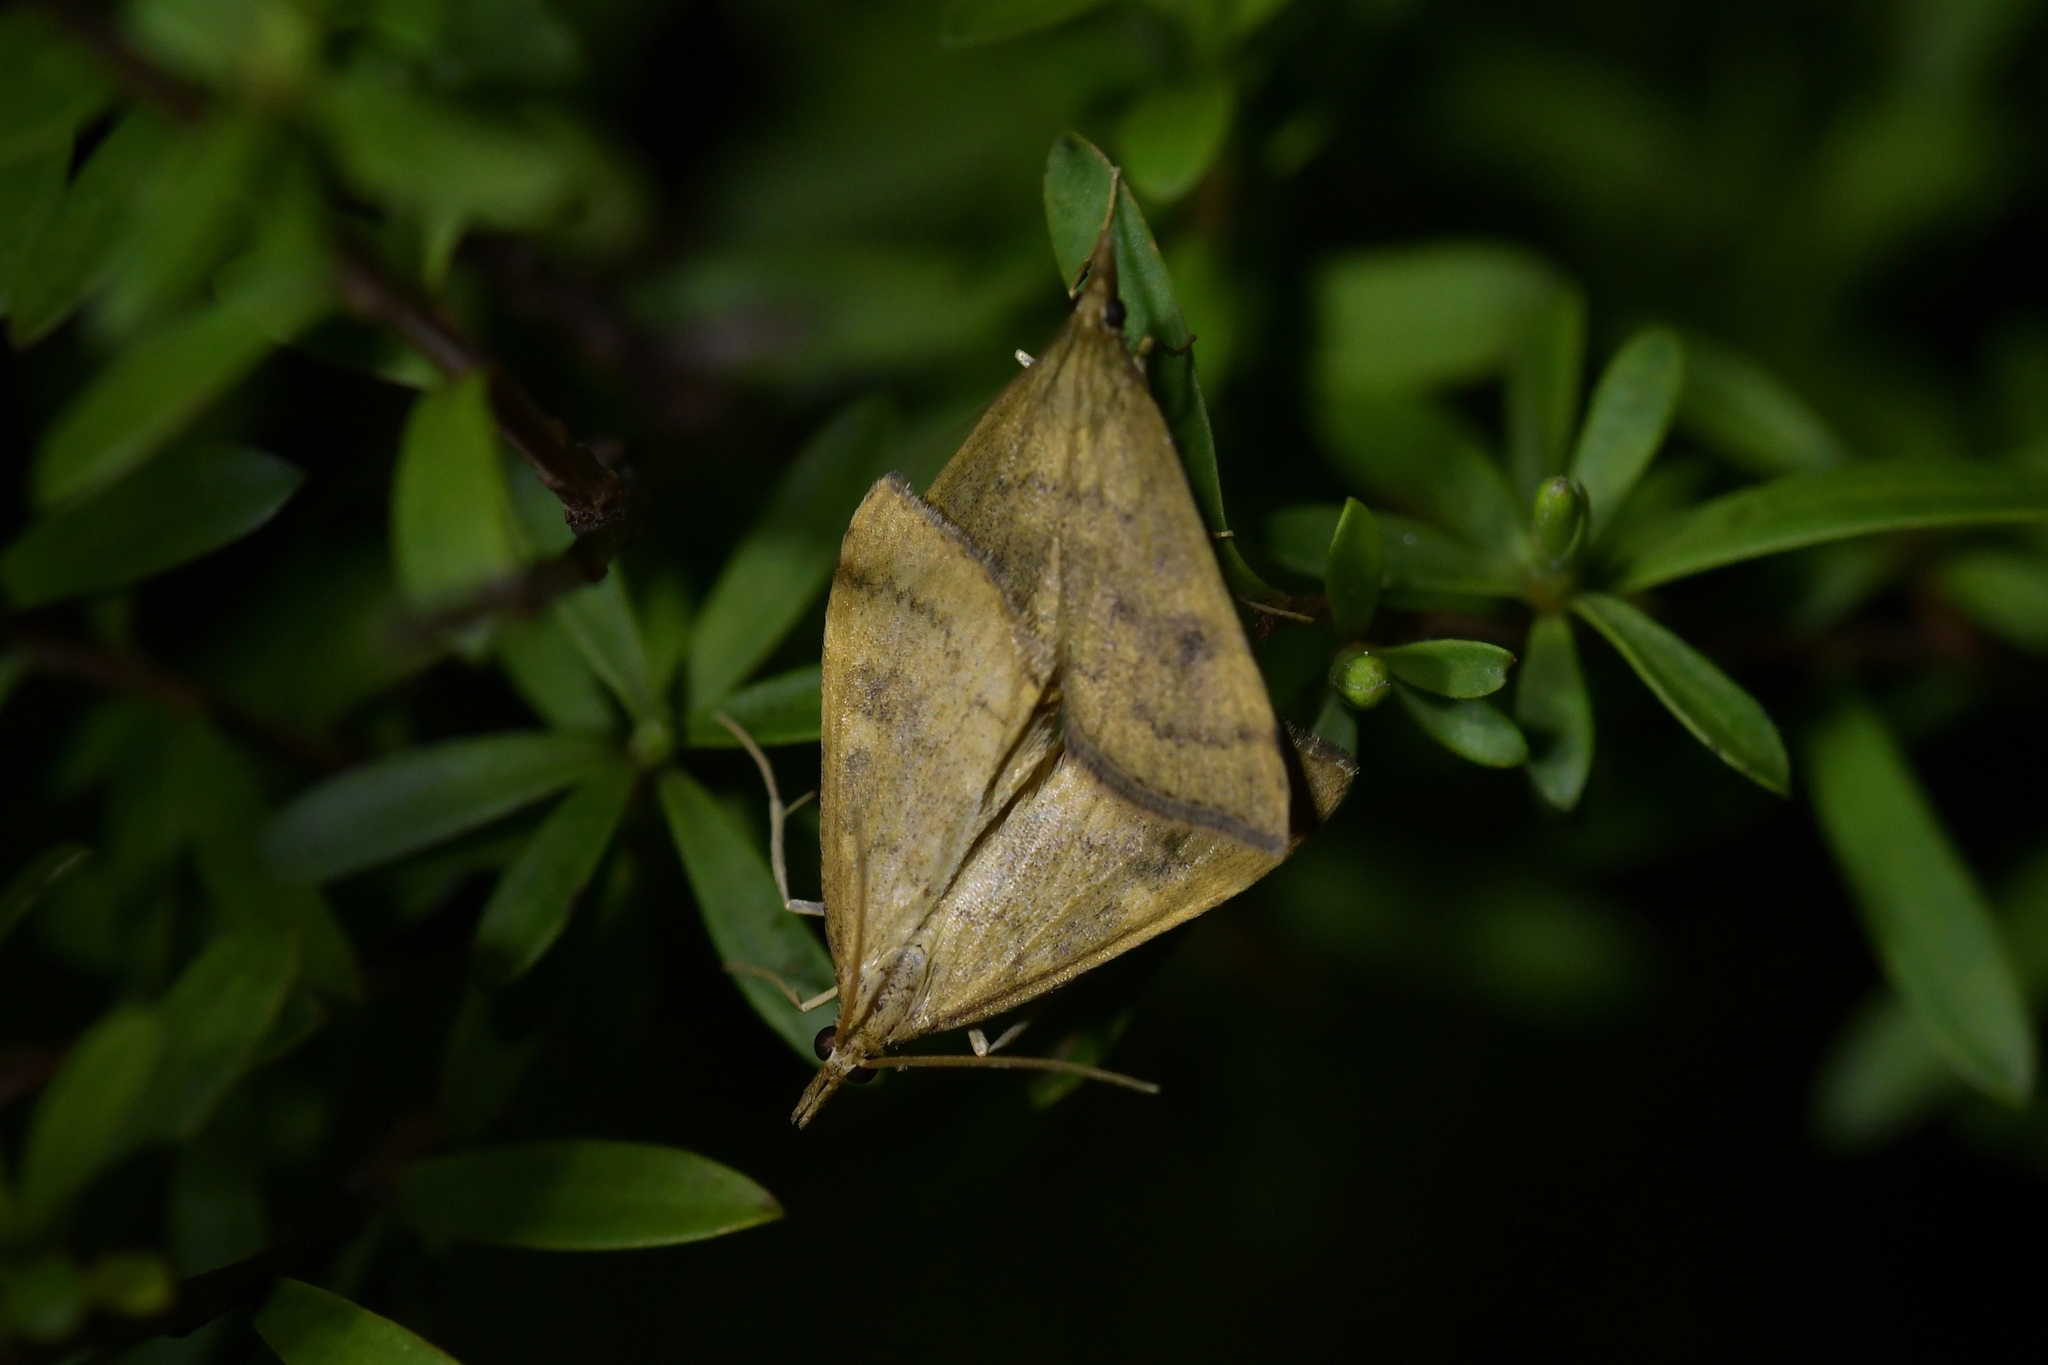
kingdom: Animalia
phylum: Arthropoda
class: Insecta
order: Lepidoptera
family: Crambidae
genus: Udea
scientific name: Udea Mnesictena flavidalis
